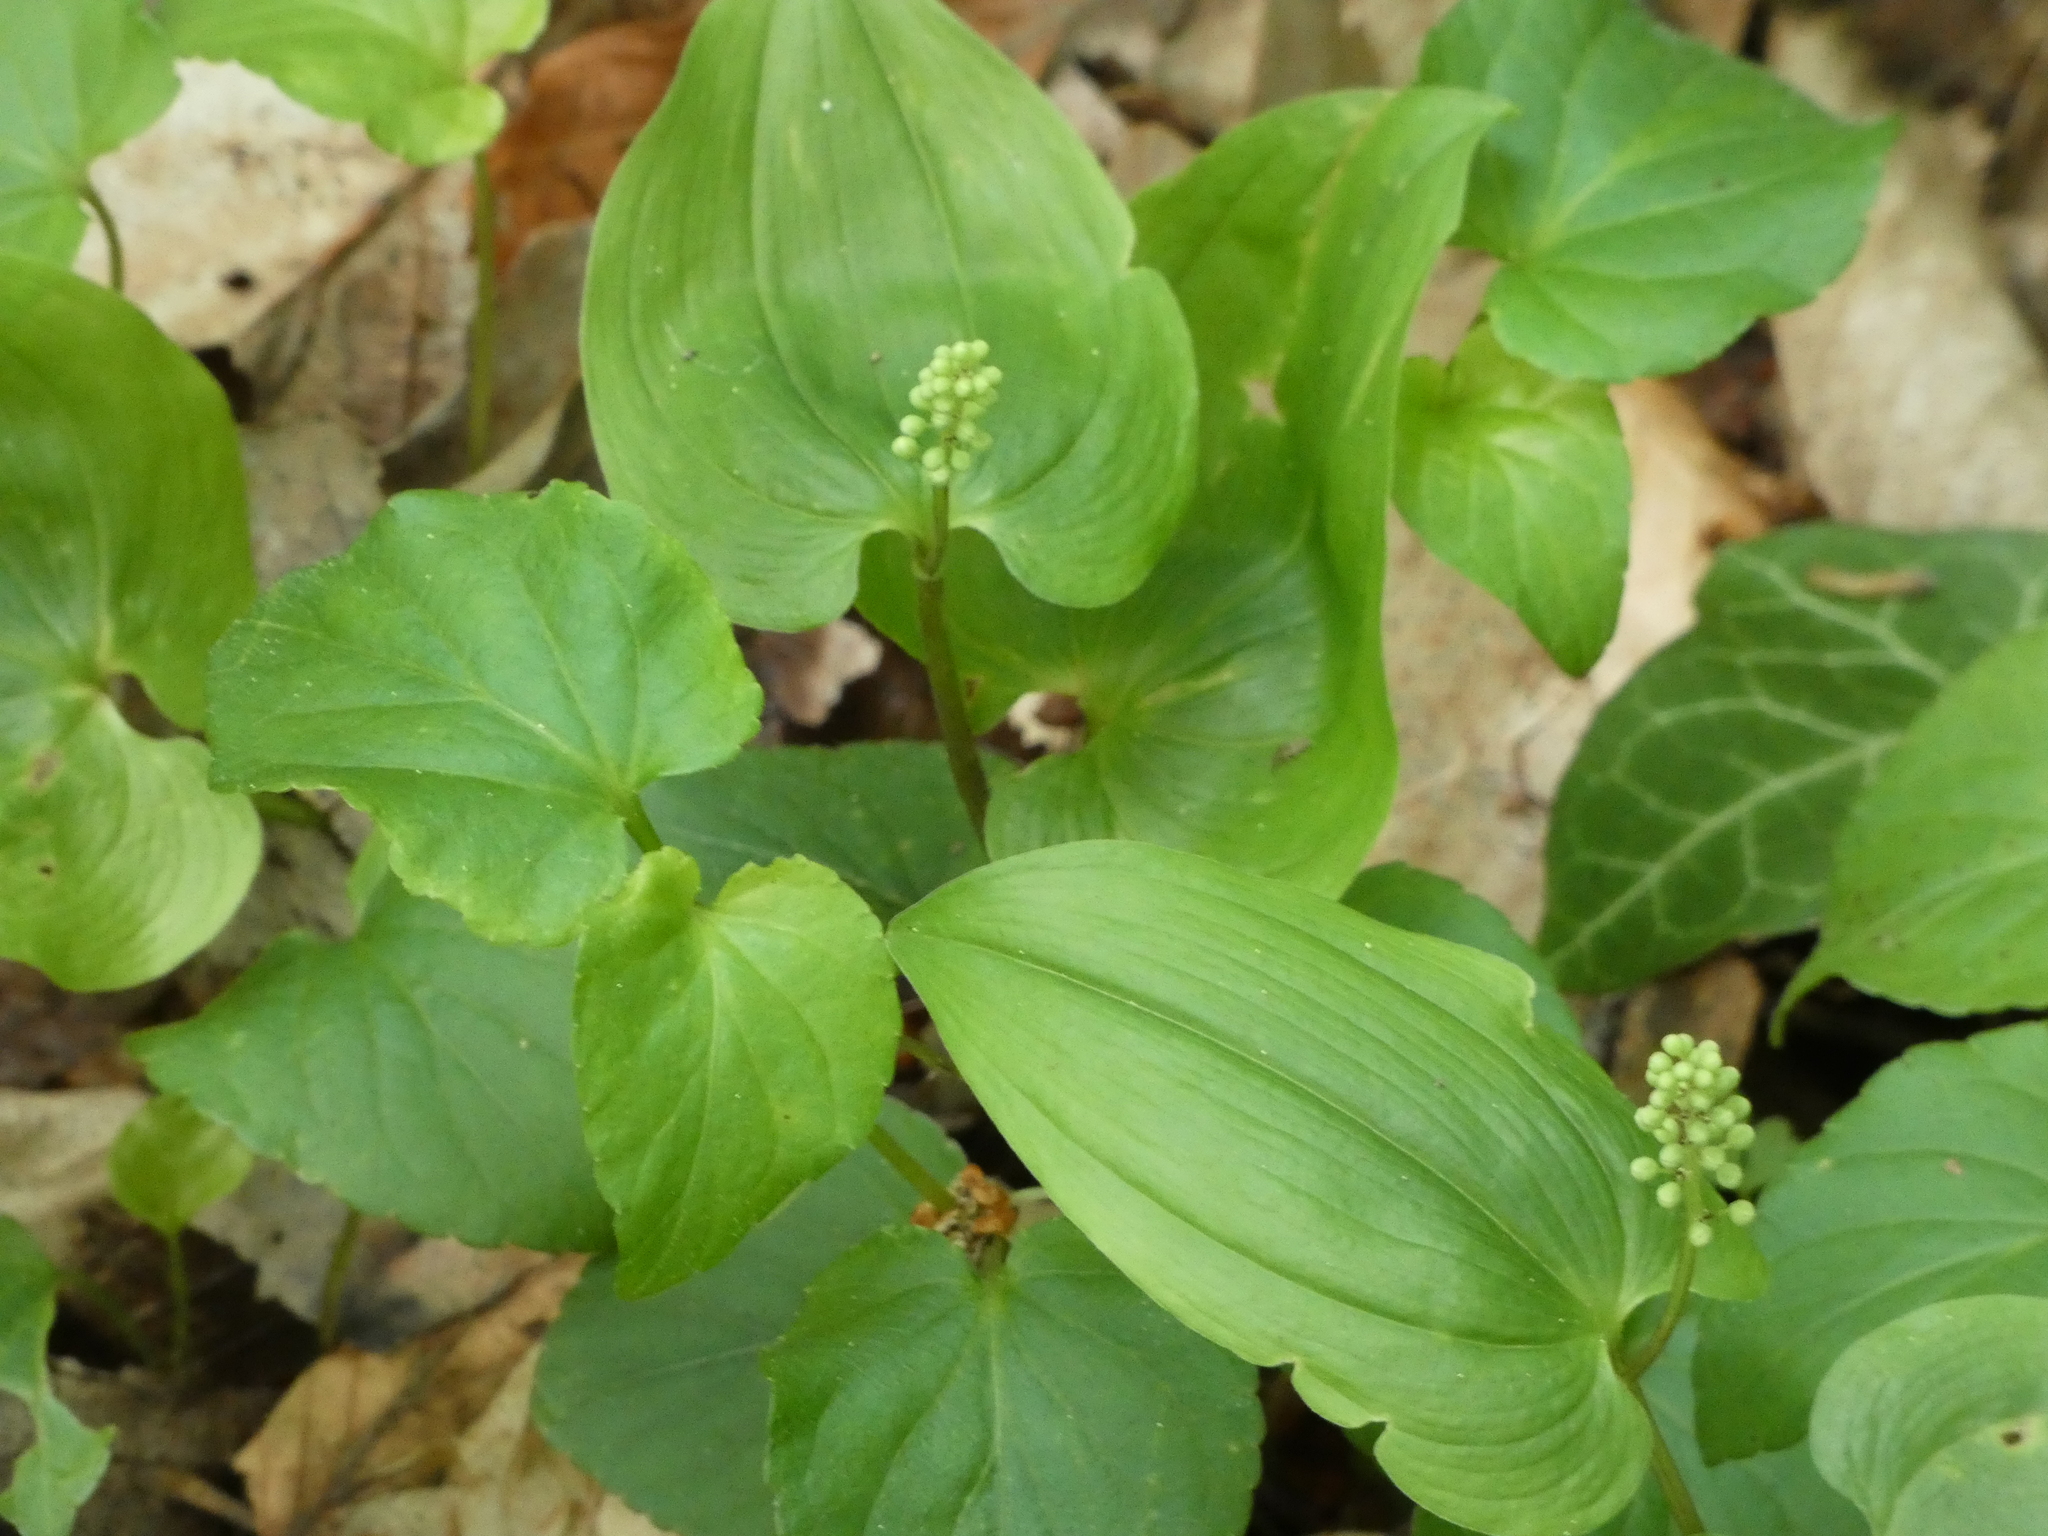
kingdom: Plantae
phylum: Tracheophyta
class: Liliopsida
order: Asparagales
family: Asparagaceae
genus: Maianthemum
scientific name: Maianthemum bifolium
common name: May lily
